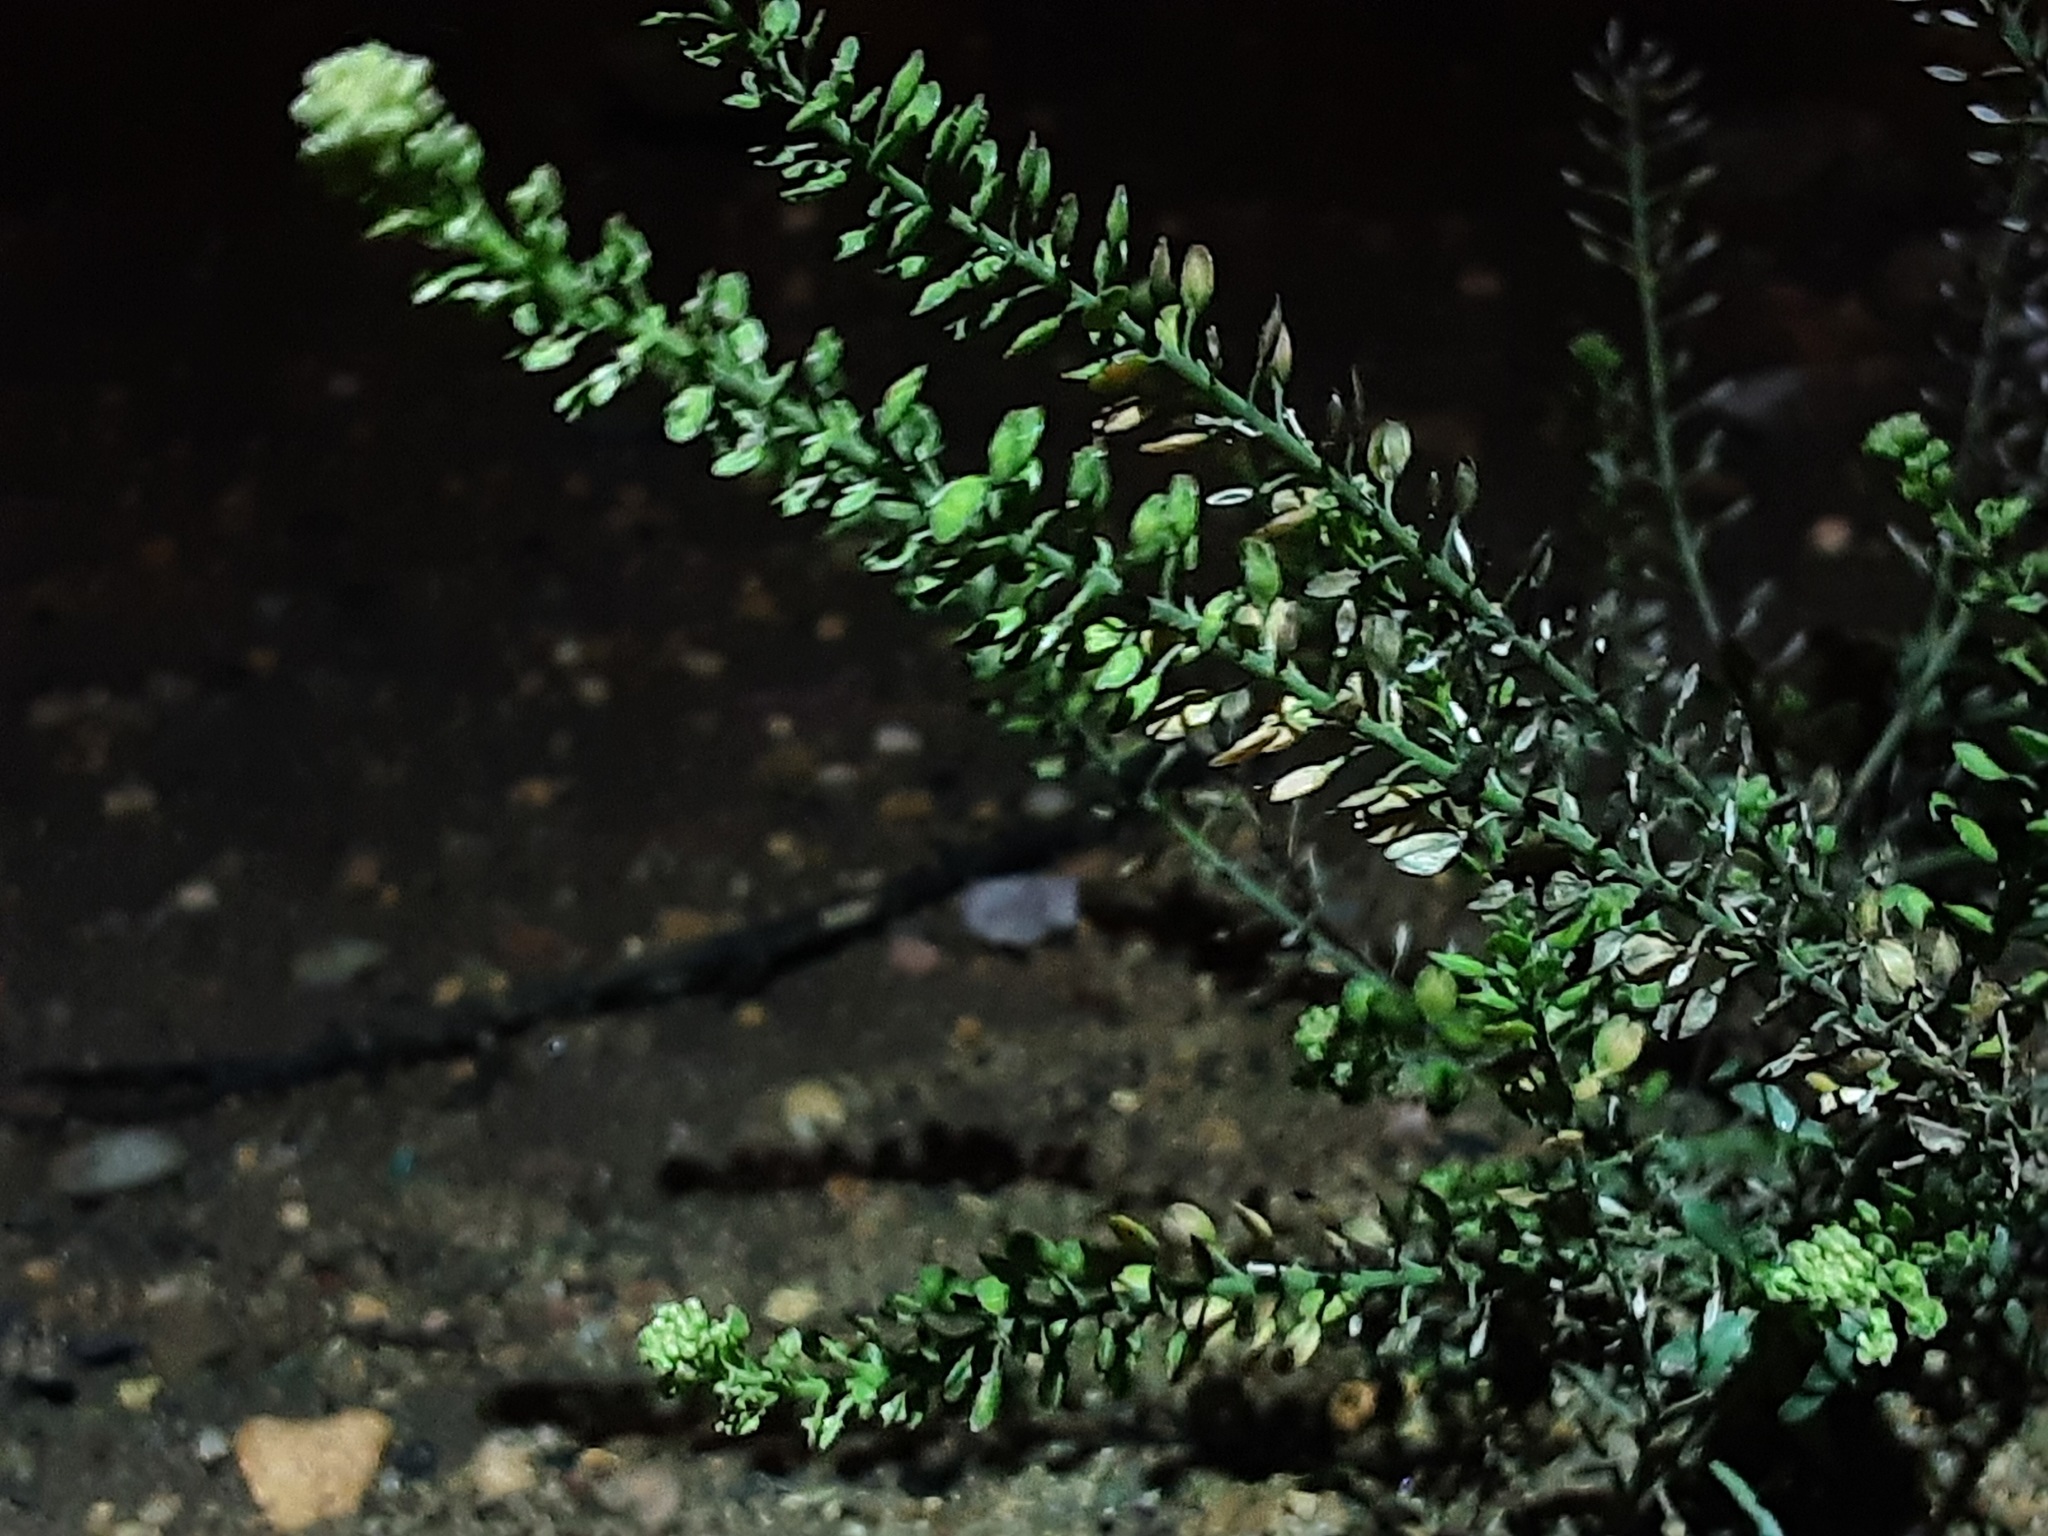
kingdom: Plantae
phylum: Tracheophyta
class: Magnoliopsida
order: Brassicales
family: Brassicaceae
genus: Lepidium
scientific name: Lepidium densiflorum
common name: Miner's pepperwort
